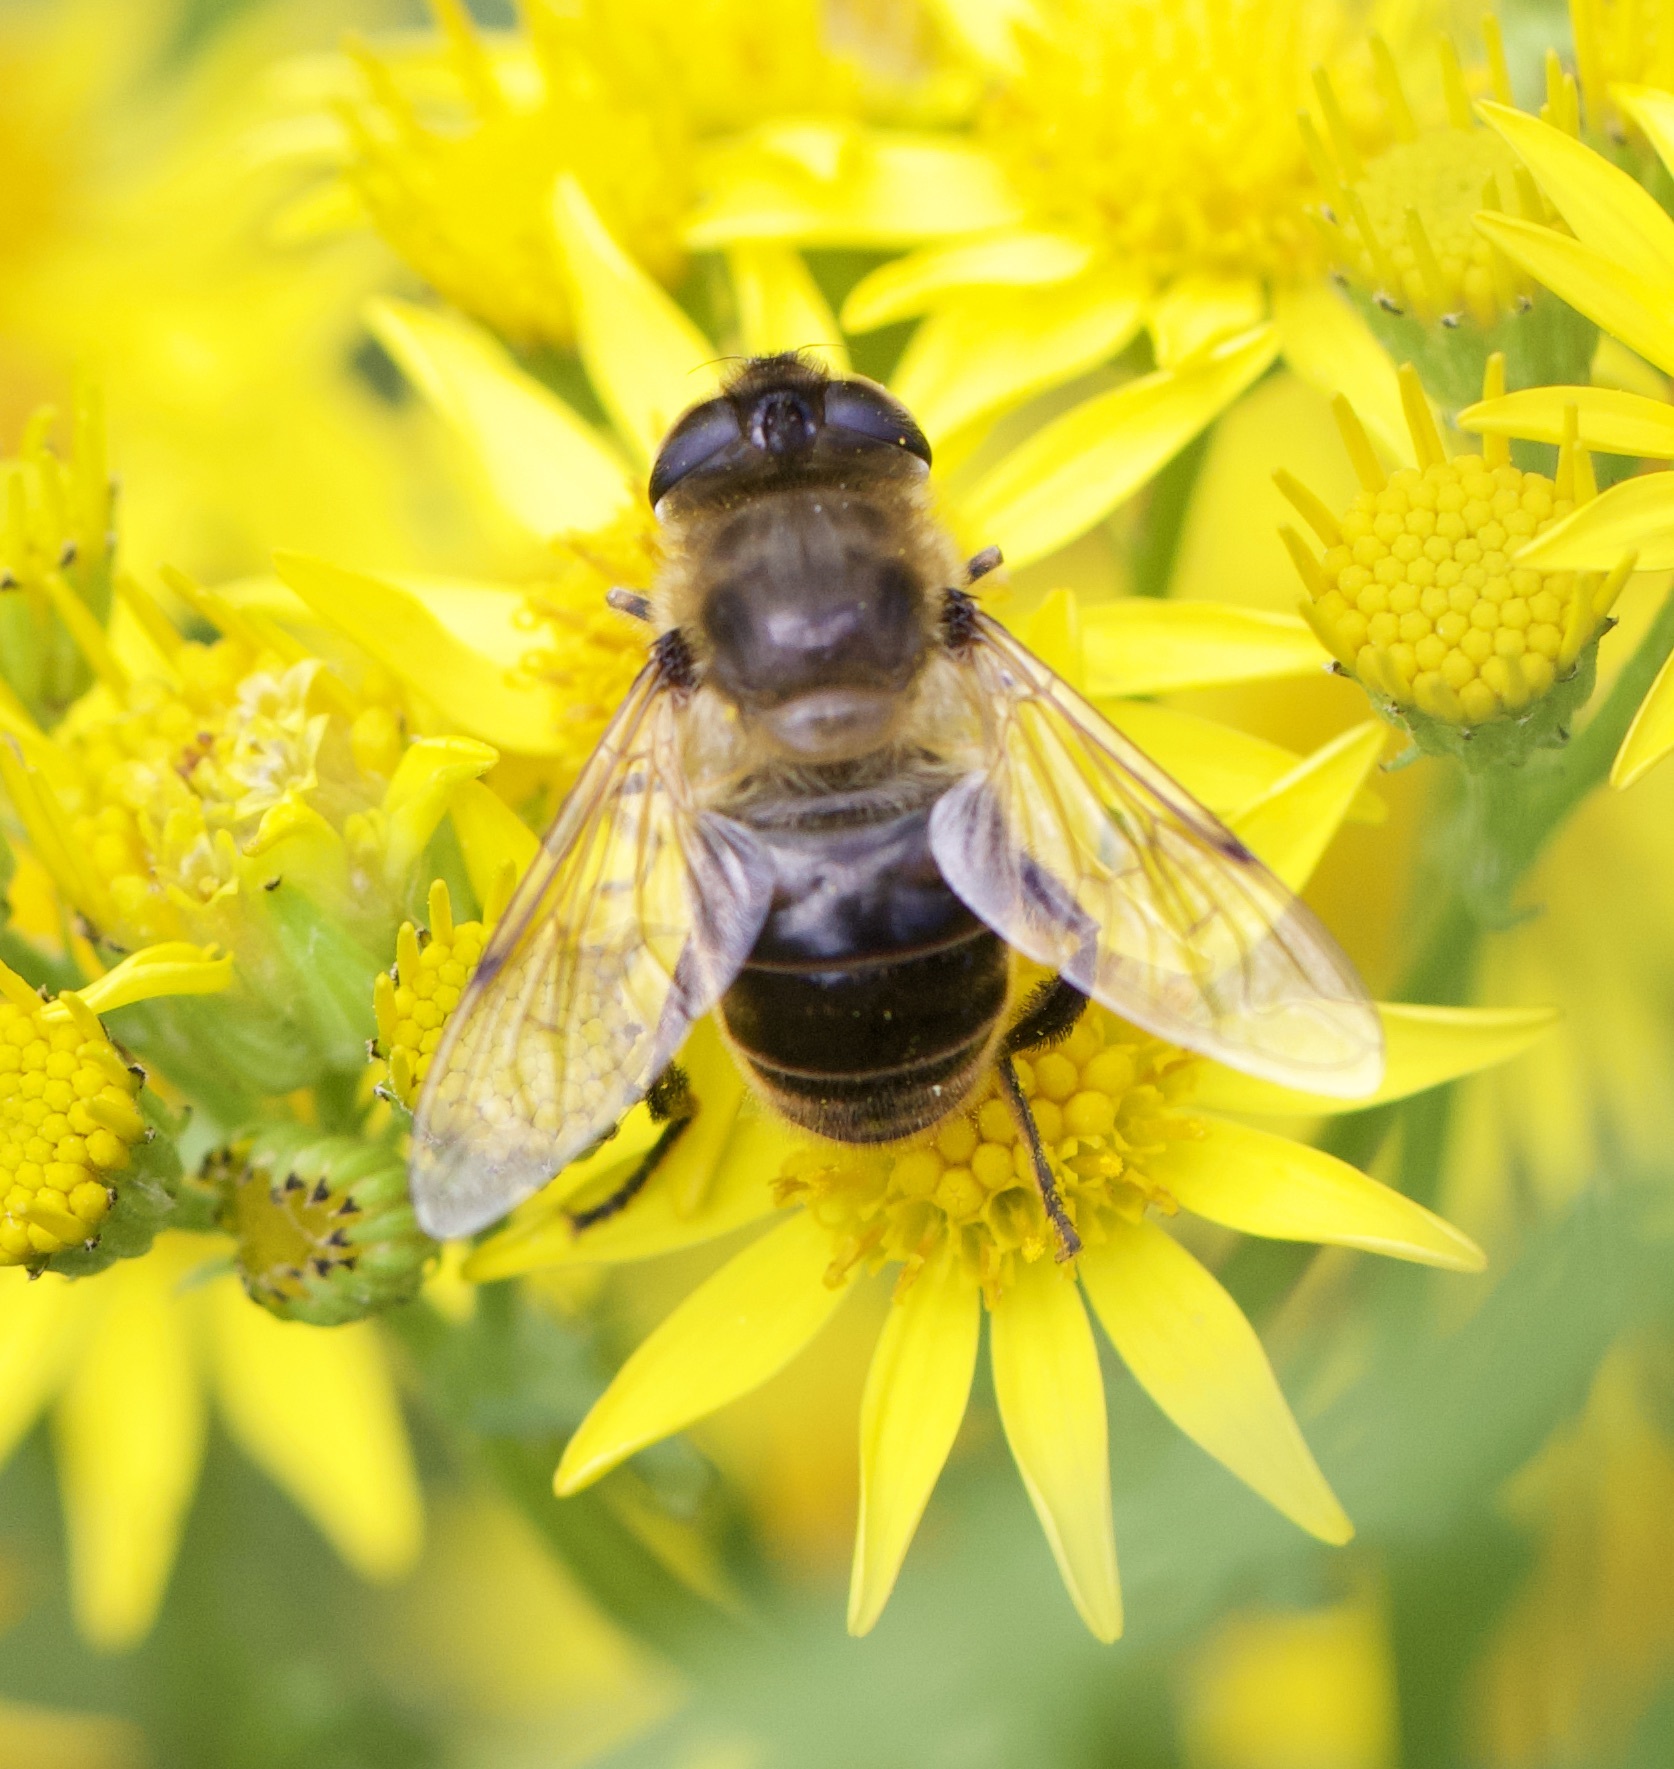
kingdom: Animalia
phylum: Arthropoda
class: Insecta
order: Diptera
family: Syrphidae
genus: Eristalis
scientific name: Eristalis tenax
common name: Drone fly
